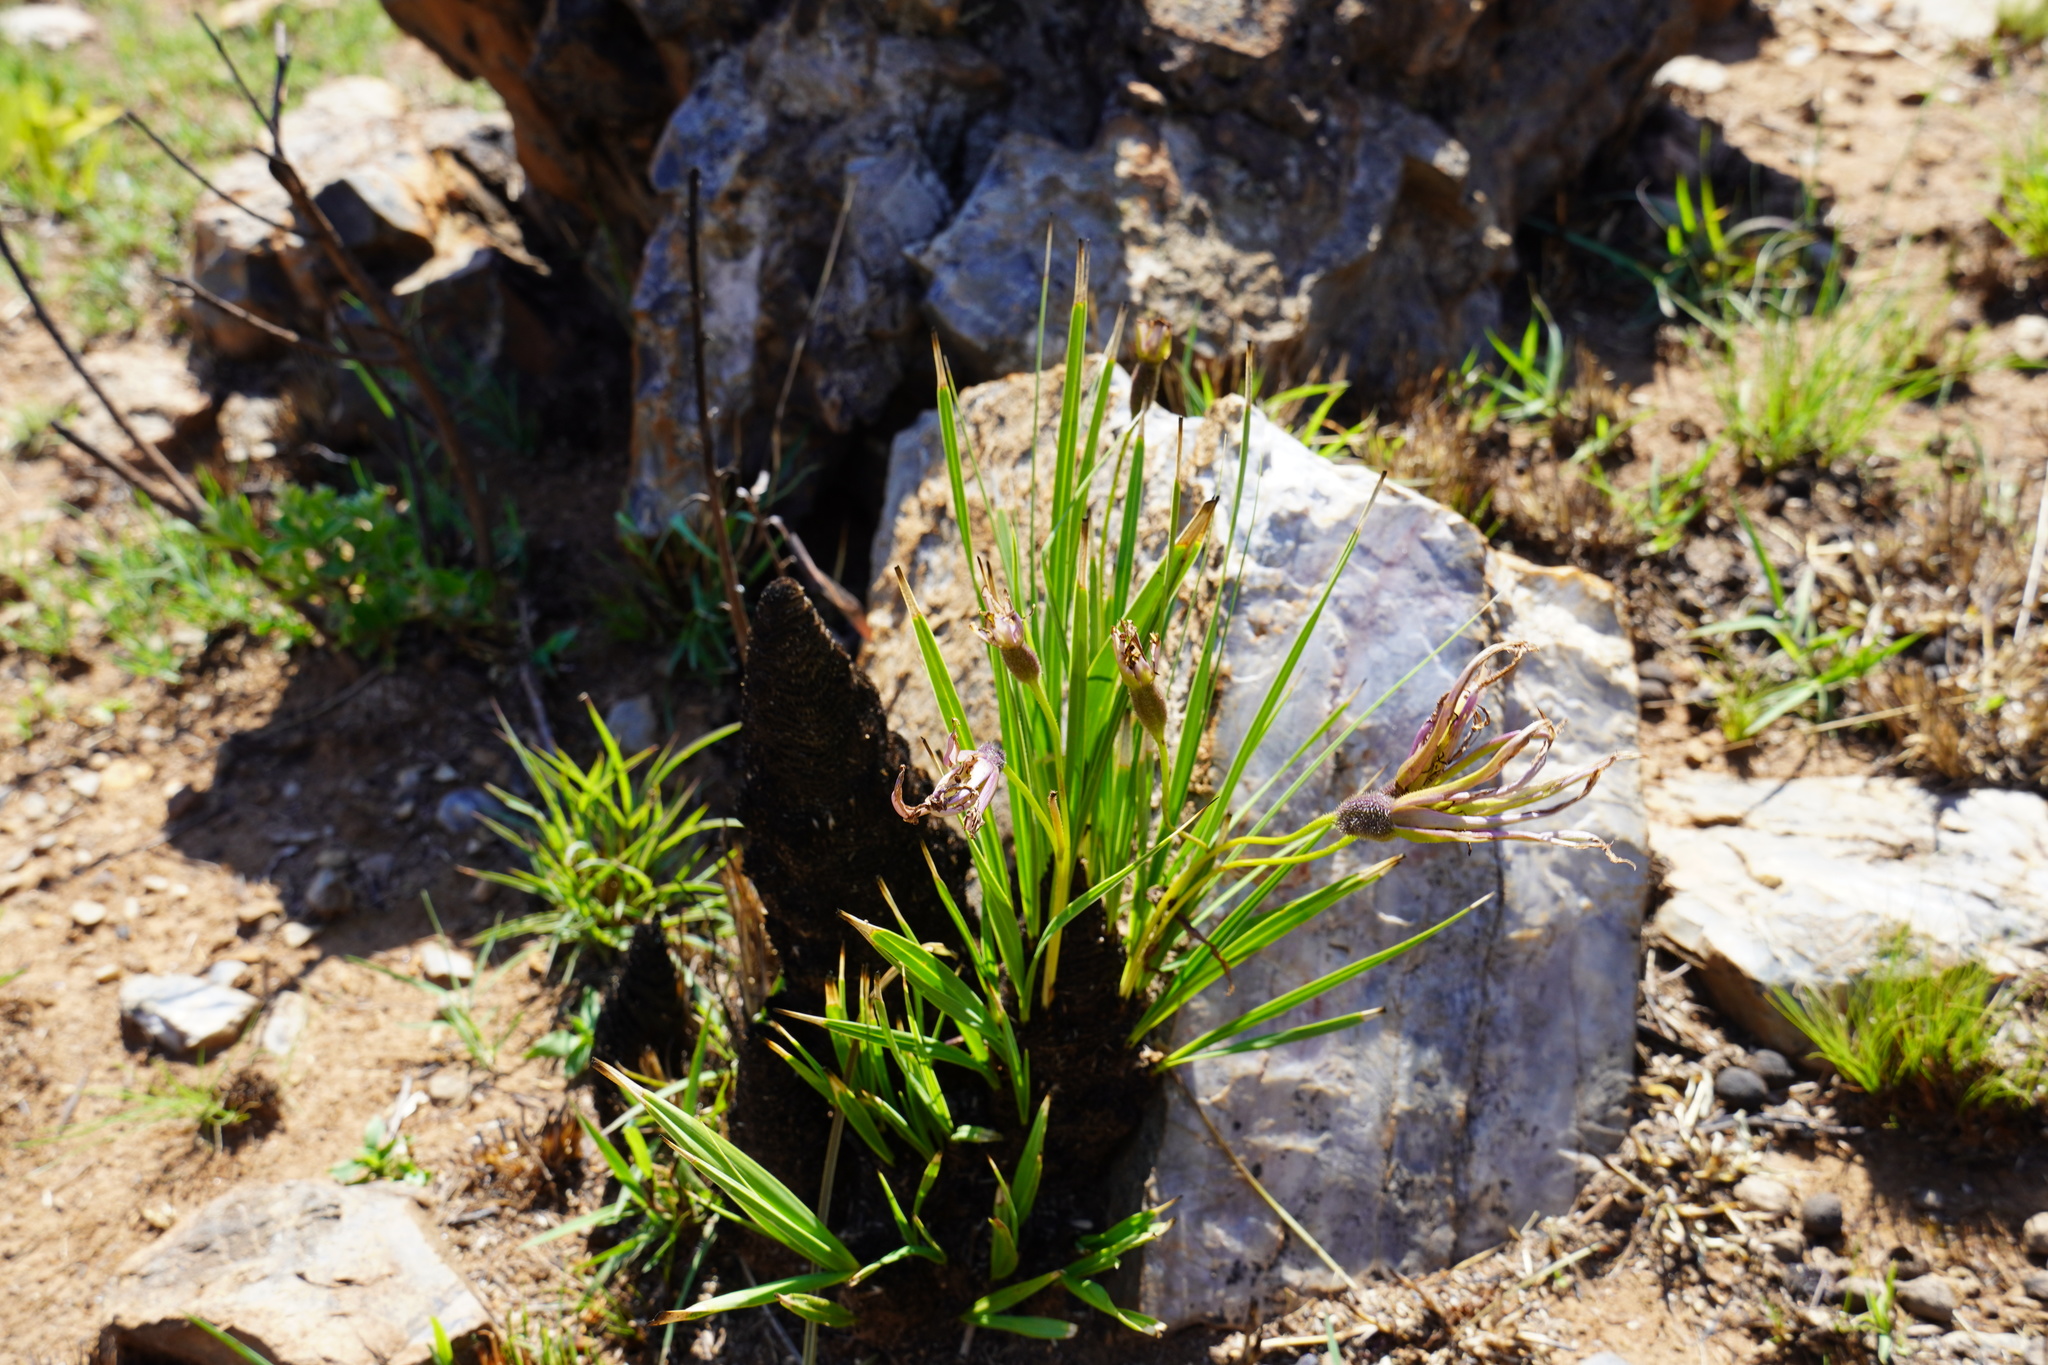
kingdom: Plantae
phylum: Tracheophyta
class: Liliopsida
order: Pandanales
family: Velloziaceae
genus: Xerophyta
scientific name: Xerophyta retinervis
